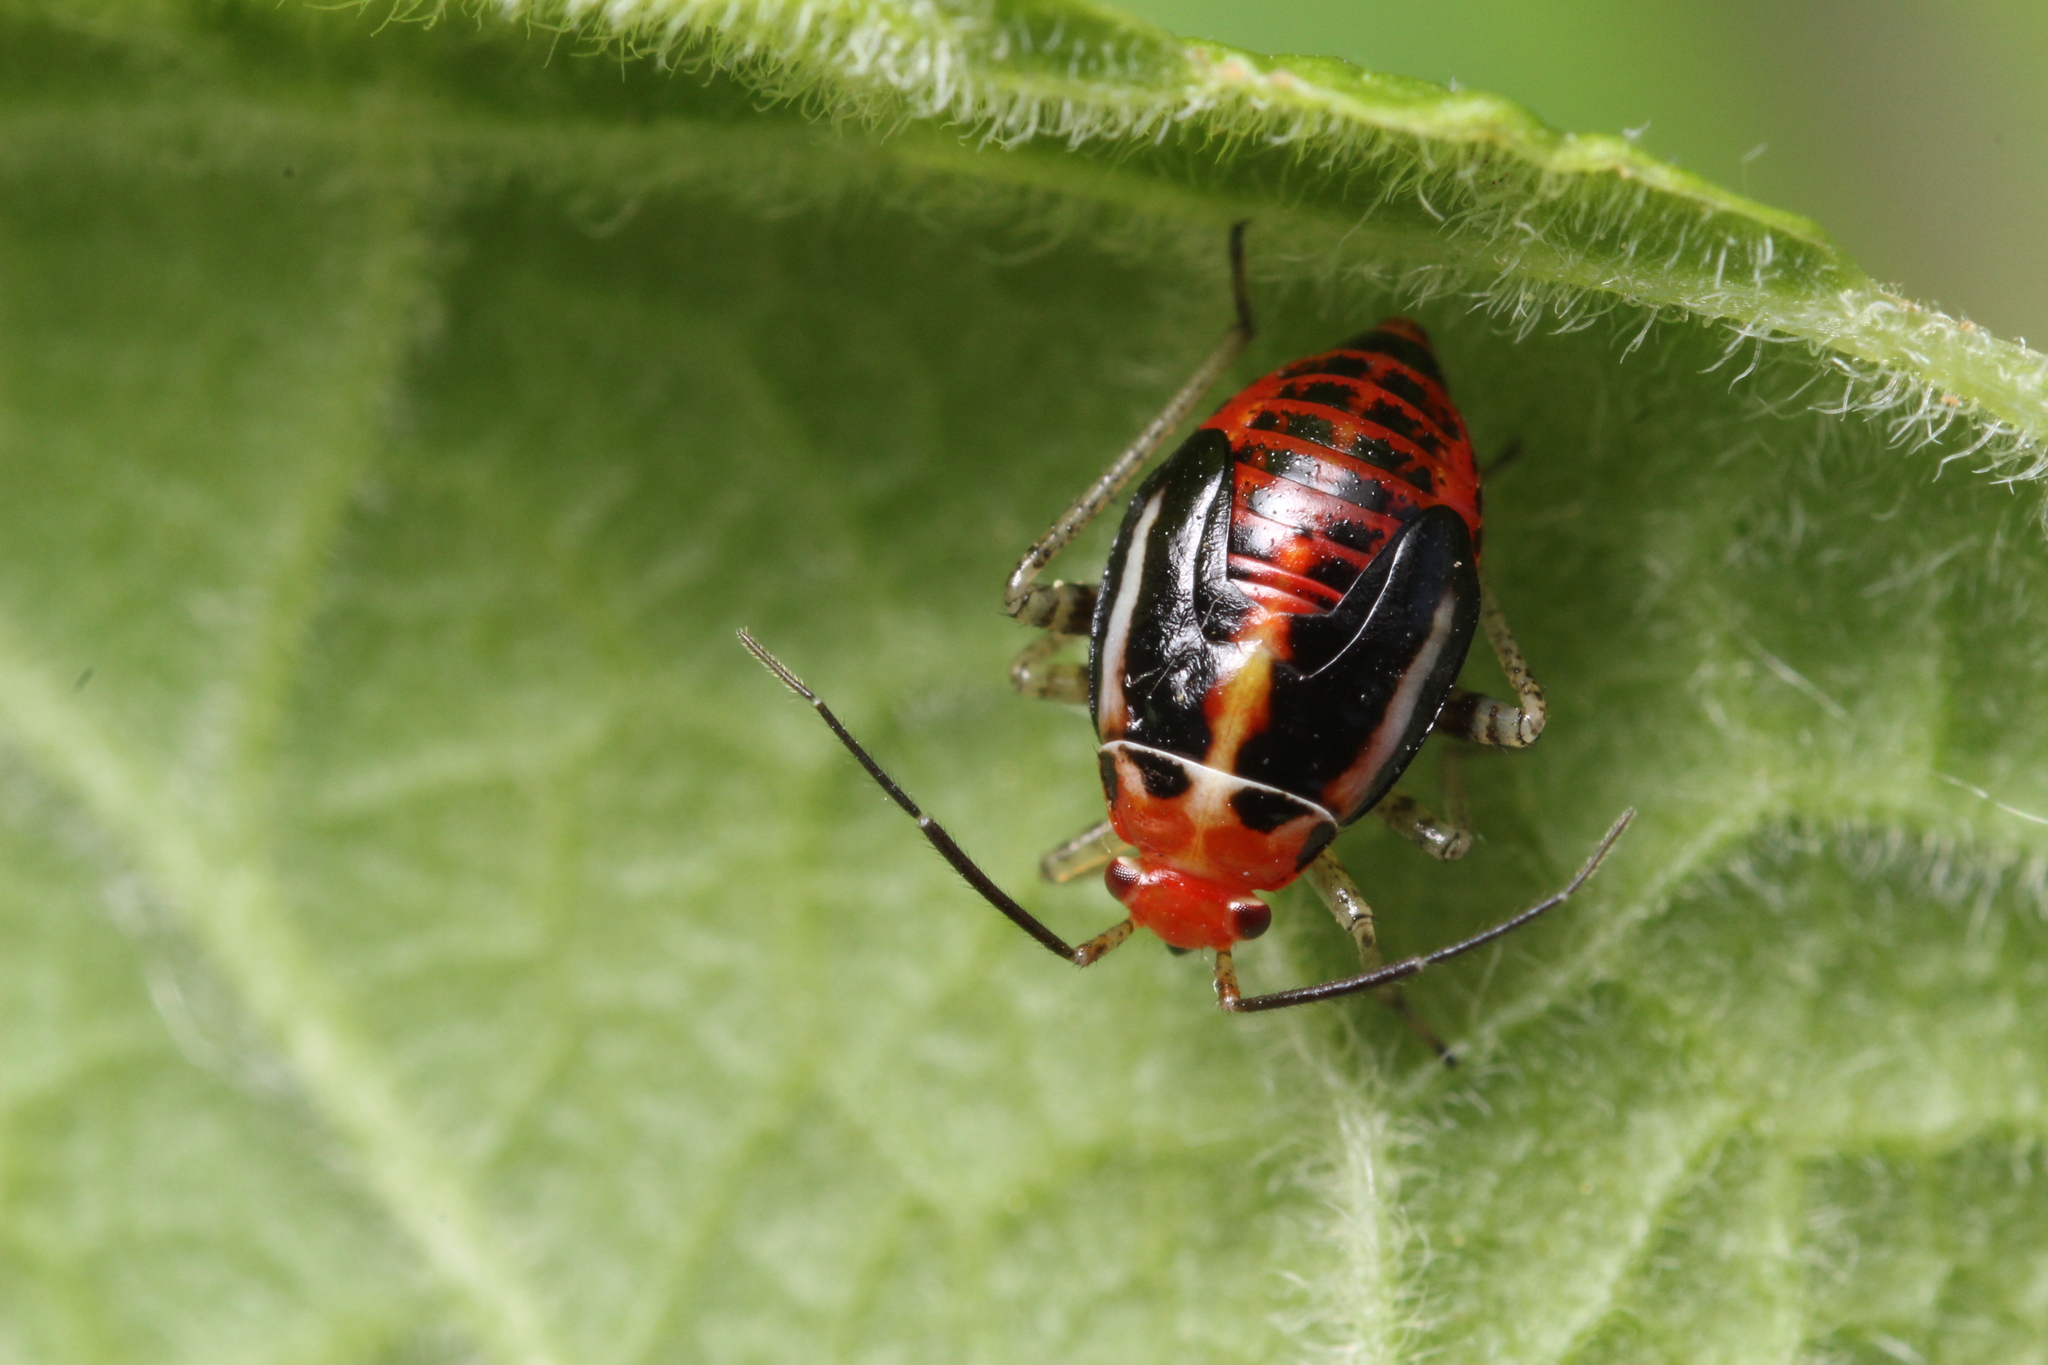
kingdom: Animalia
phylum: Arthropoda
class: Insecta
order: Hemiptera
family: Miridae
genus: Poecilocapsus
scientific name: Poecilocapsus lineatus
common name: Four-lined plant bug
